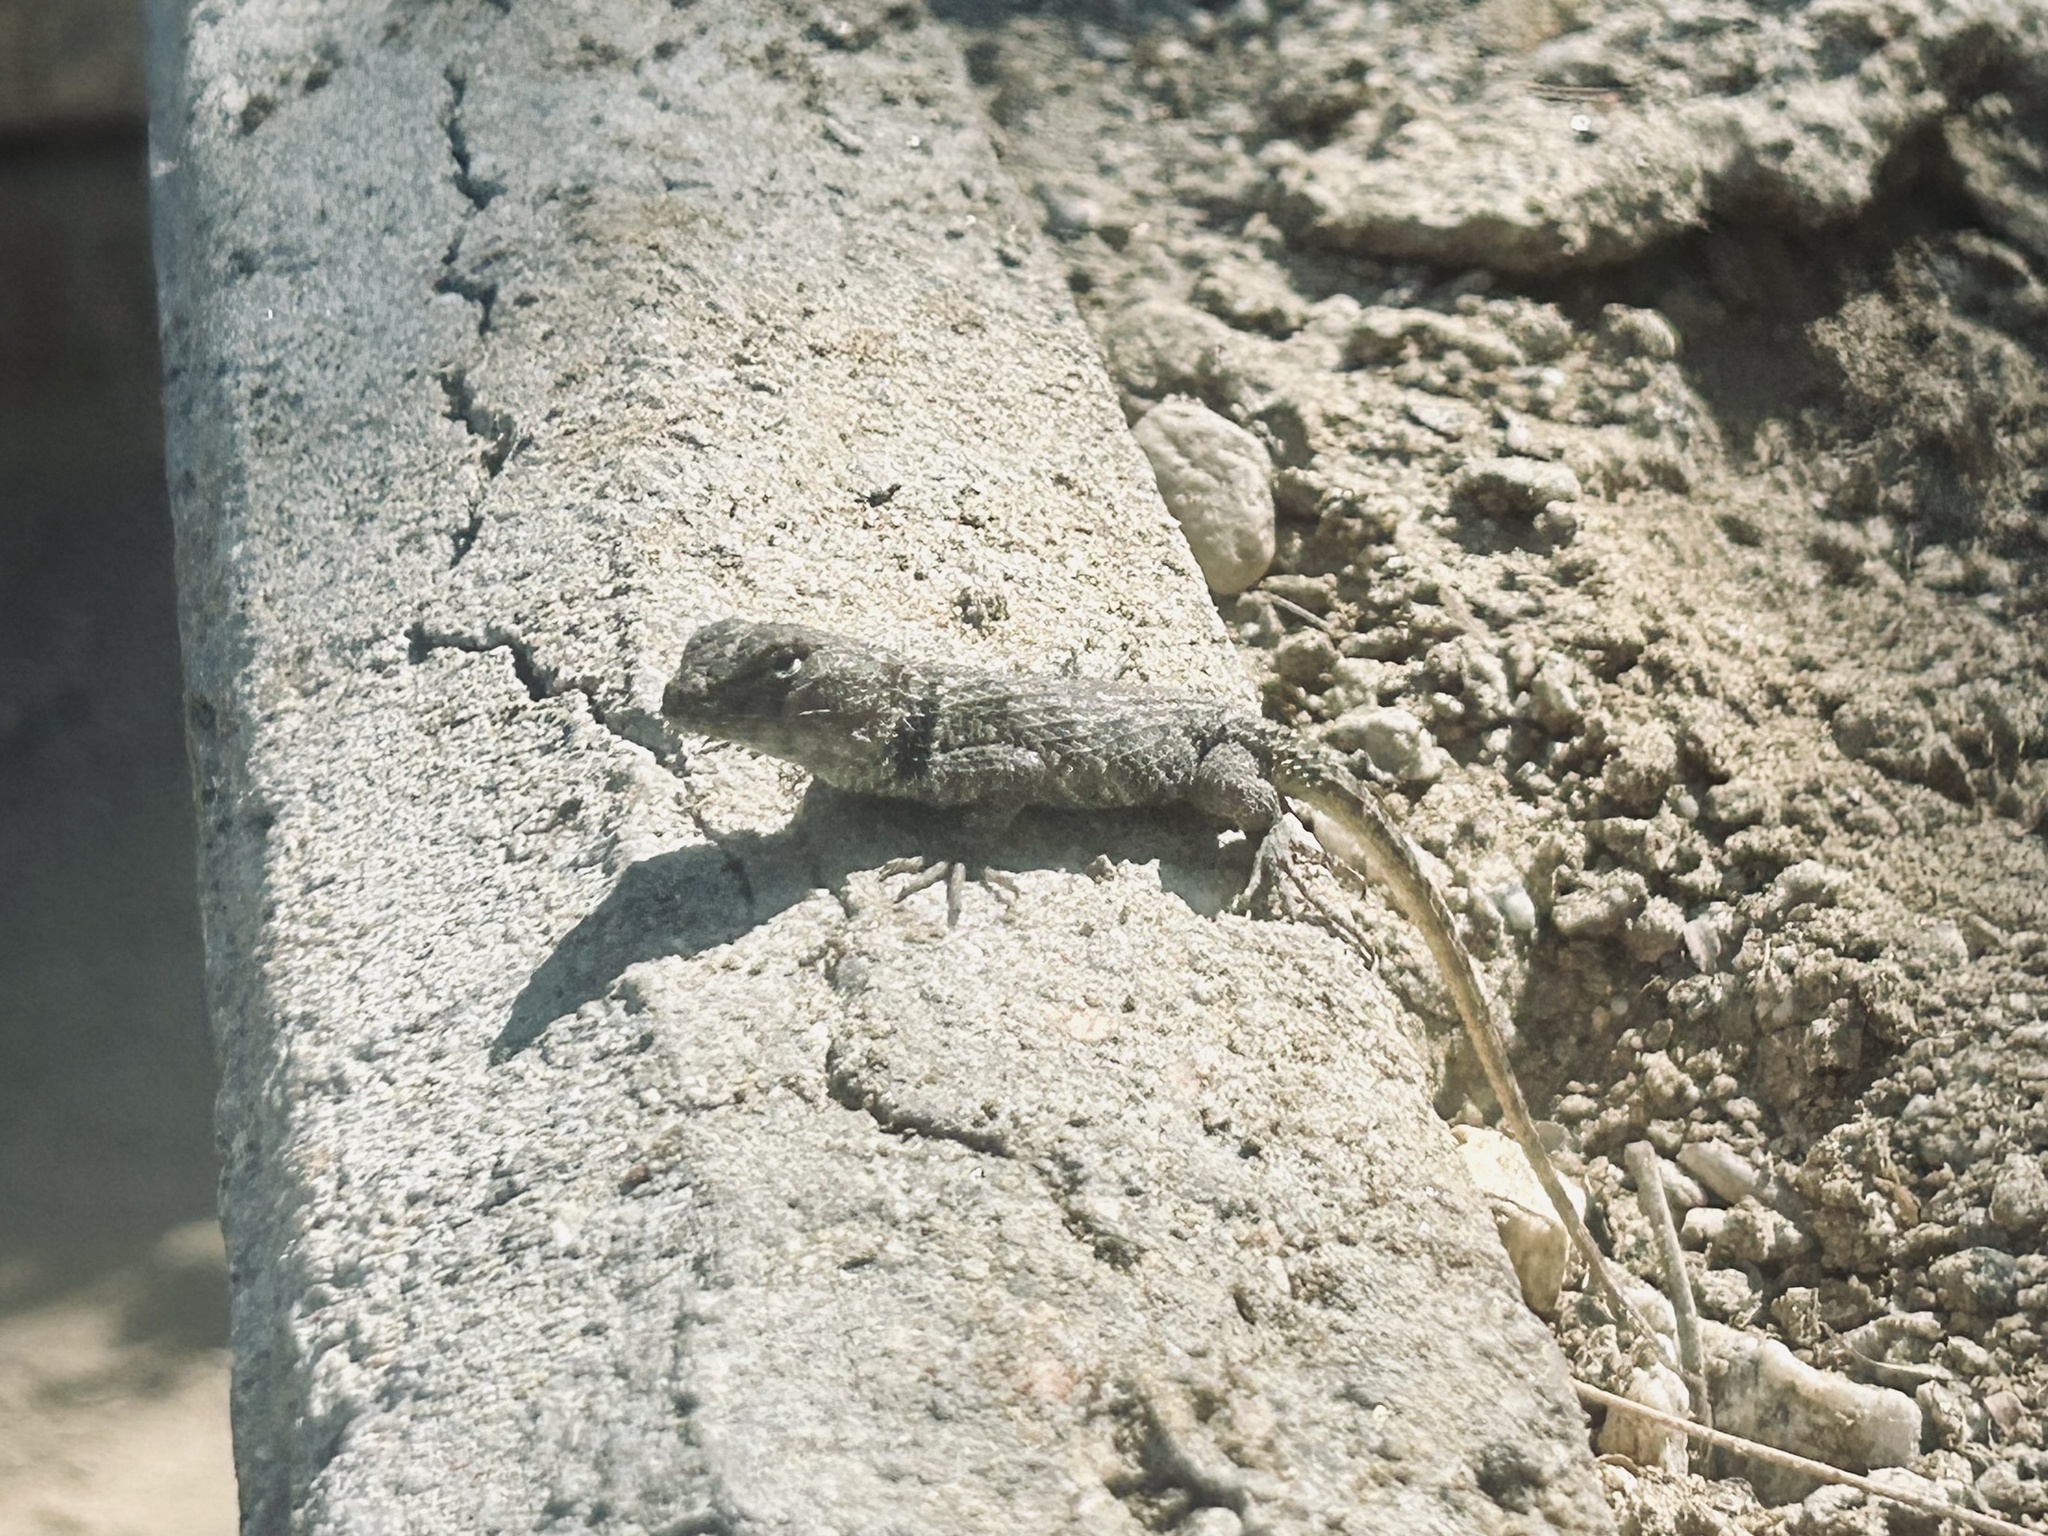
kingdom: Animalia
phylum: Chordata
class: Squamata
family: Phrynosomatidae
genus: Sceloporus
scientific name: Sceloporus magister
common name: Desert spiny lizard
